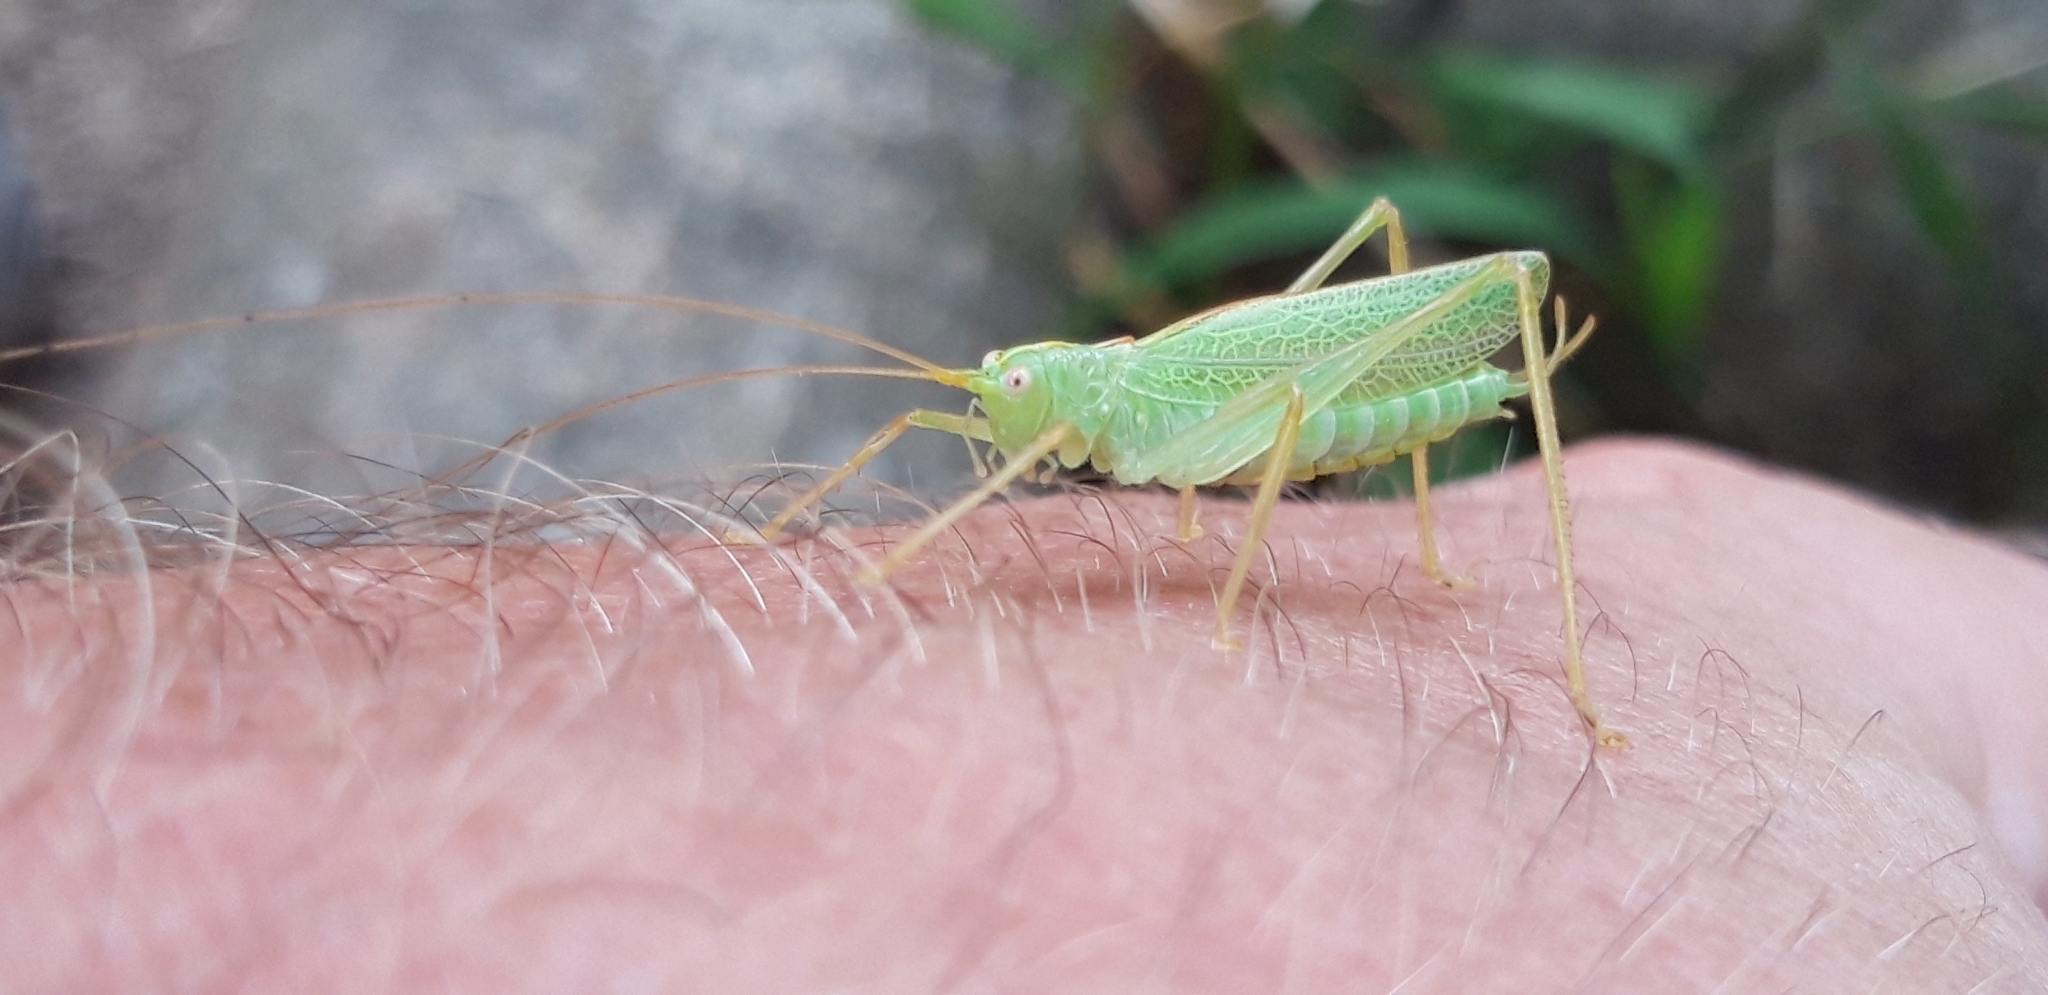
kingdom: Animalia
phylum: Arthropoda
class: Insecta
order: Orthoptera
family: Tettigoniidae
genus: Meconema
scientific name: Meconema thalassinum
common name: Oak bush-cricket
